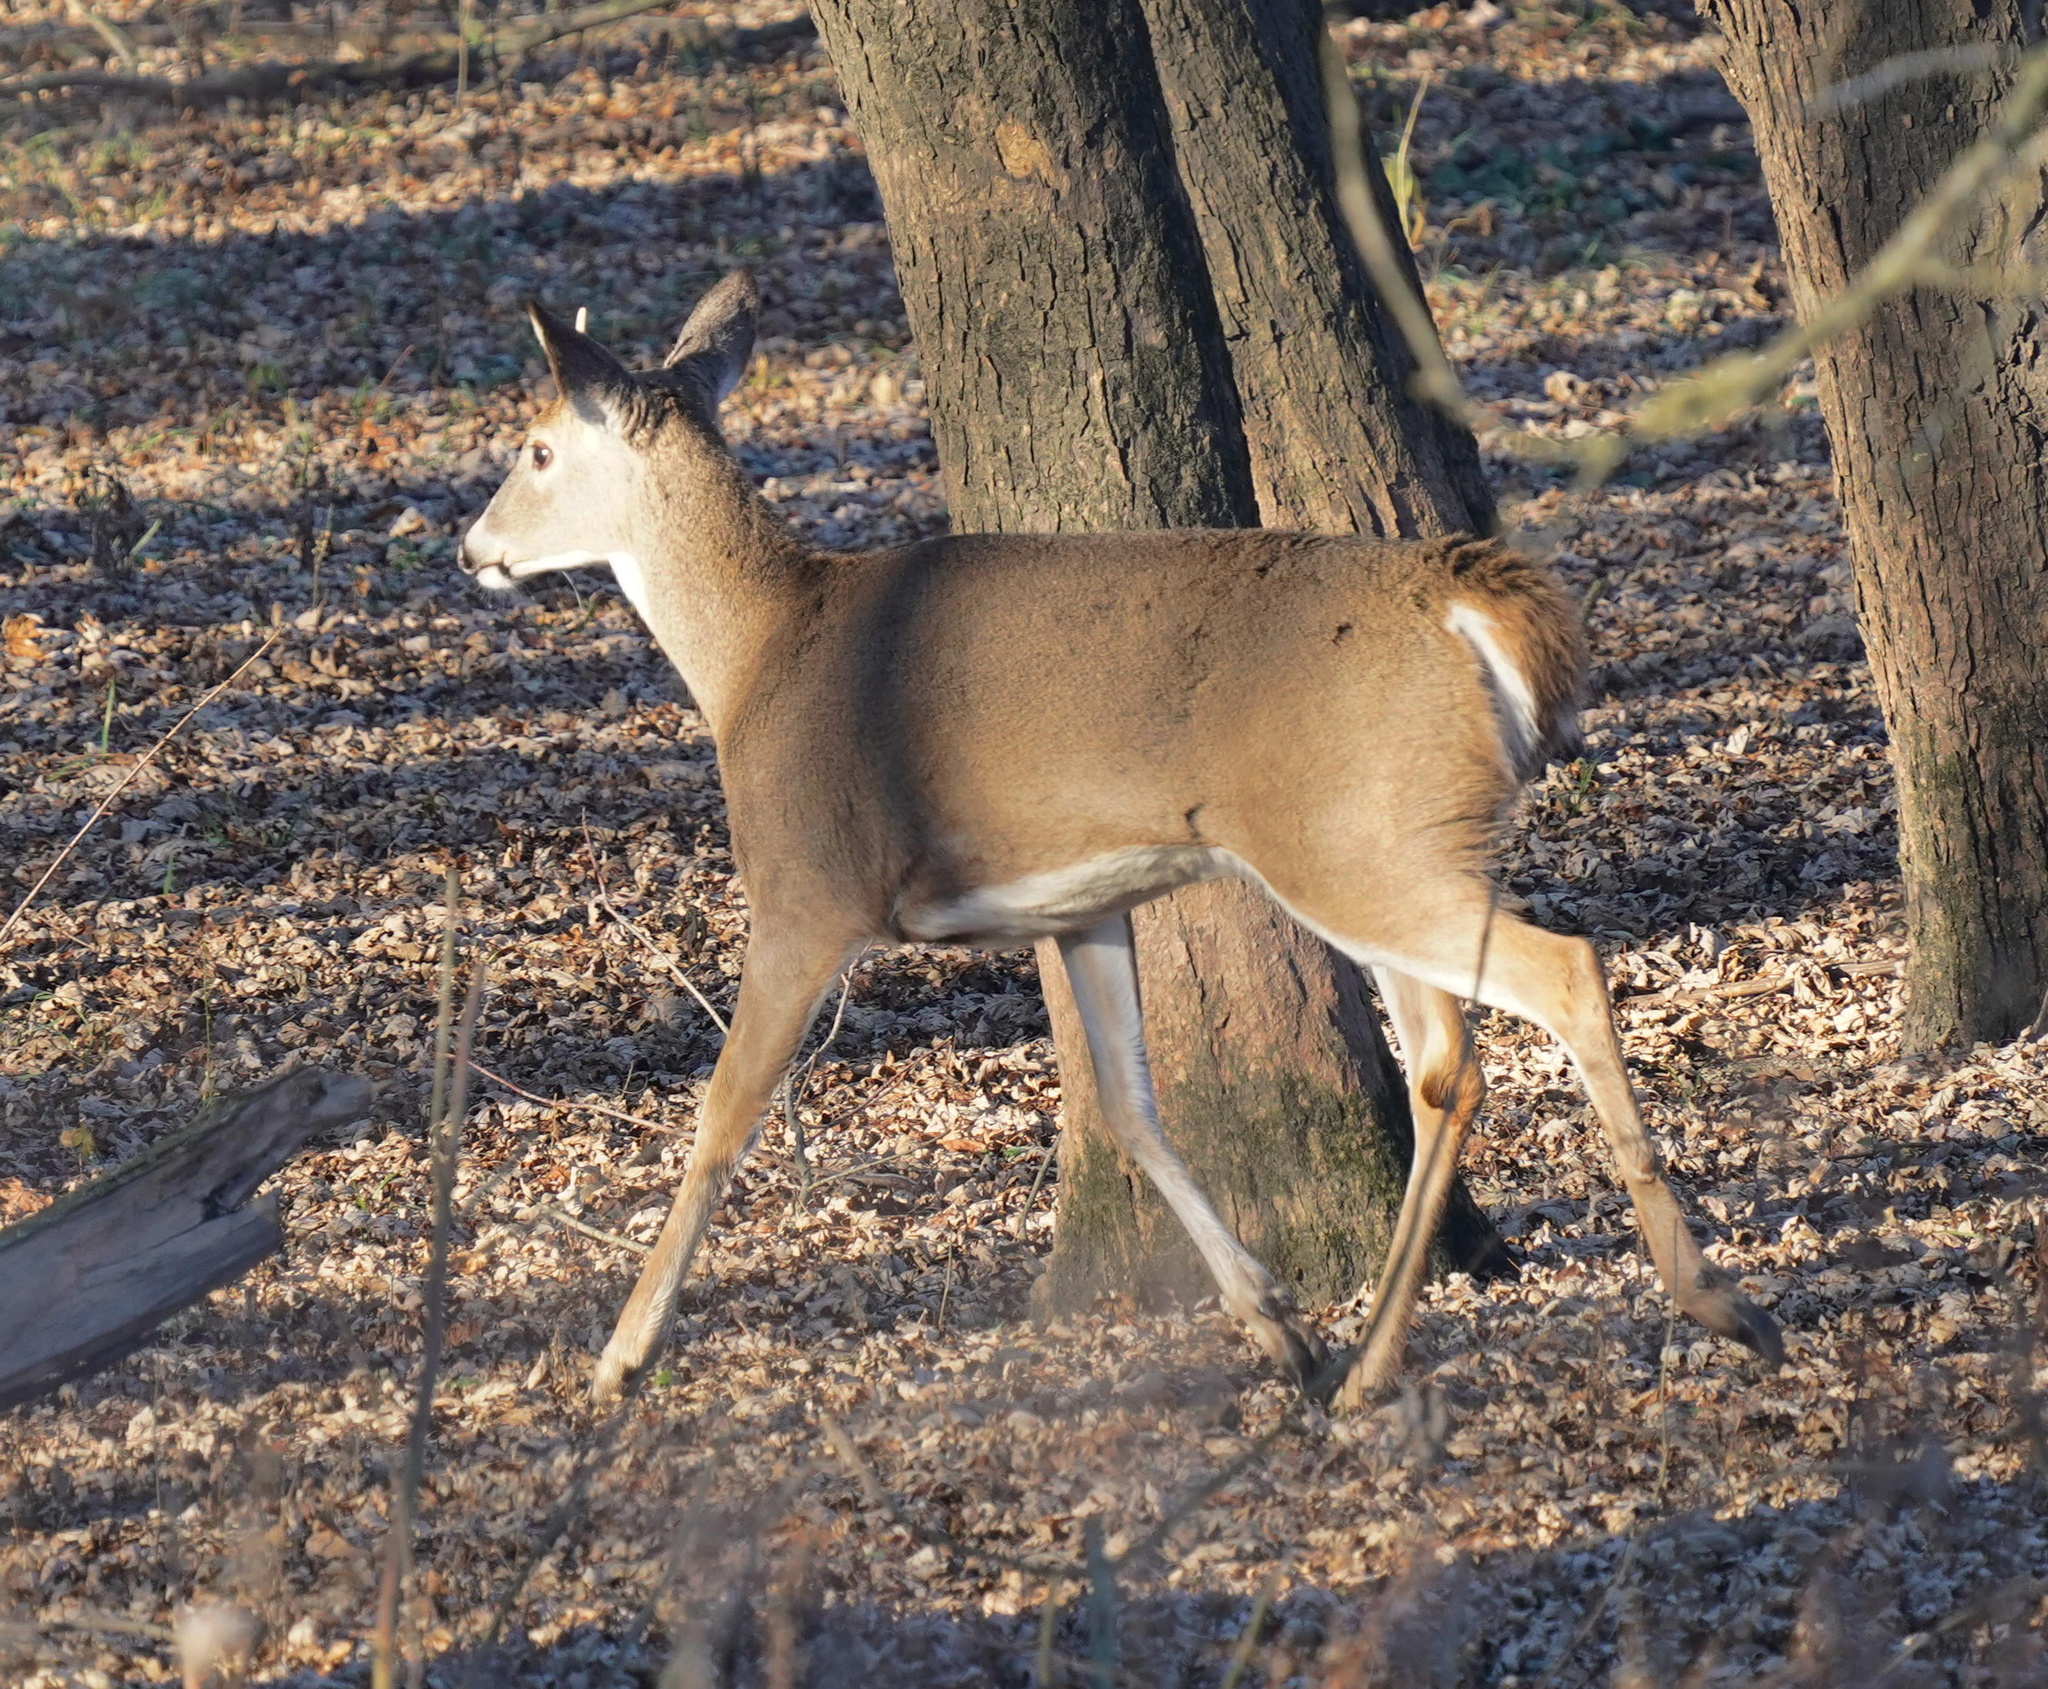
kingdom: Animalia
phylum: Chordata
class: Mammalia
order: Artiodactyla
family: Cervidae
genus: Odocoileus
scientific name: Odocoileus virginianus
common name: White-tailed deer
